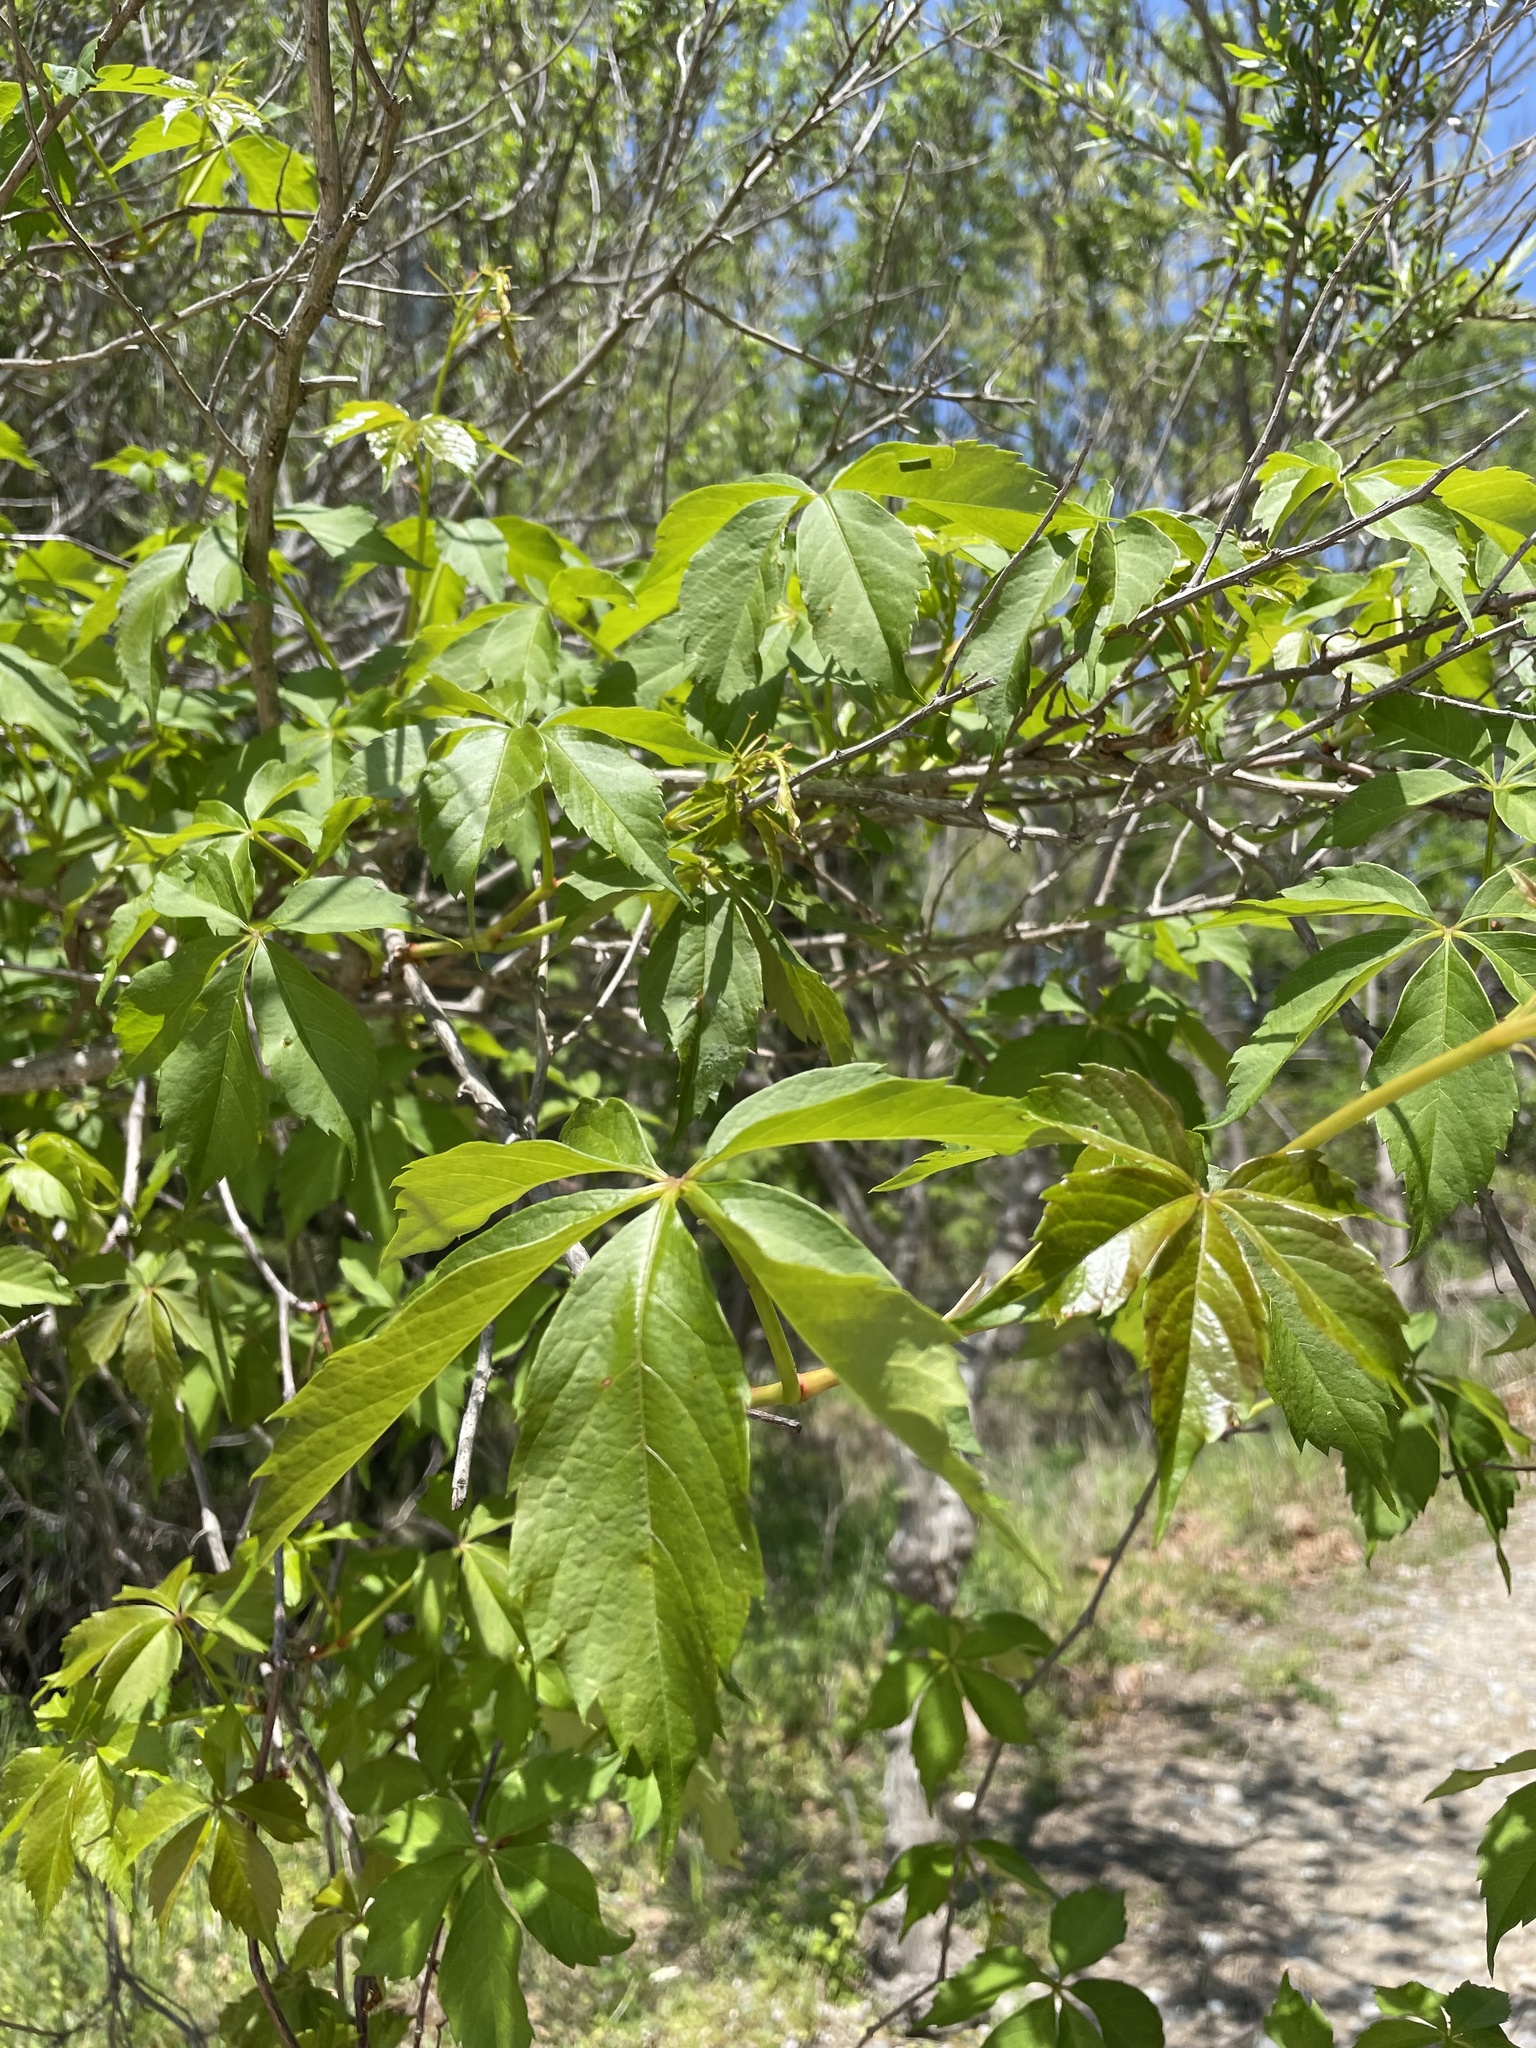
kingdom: Plantae
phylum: Tracheophyta
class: Magnoliopsida
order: Vitales
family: Vitaceae
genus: Parthenocissus
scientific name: Parthenocissus quinquefolia
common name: Virginia-creeper
